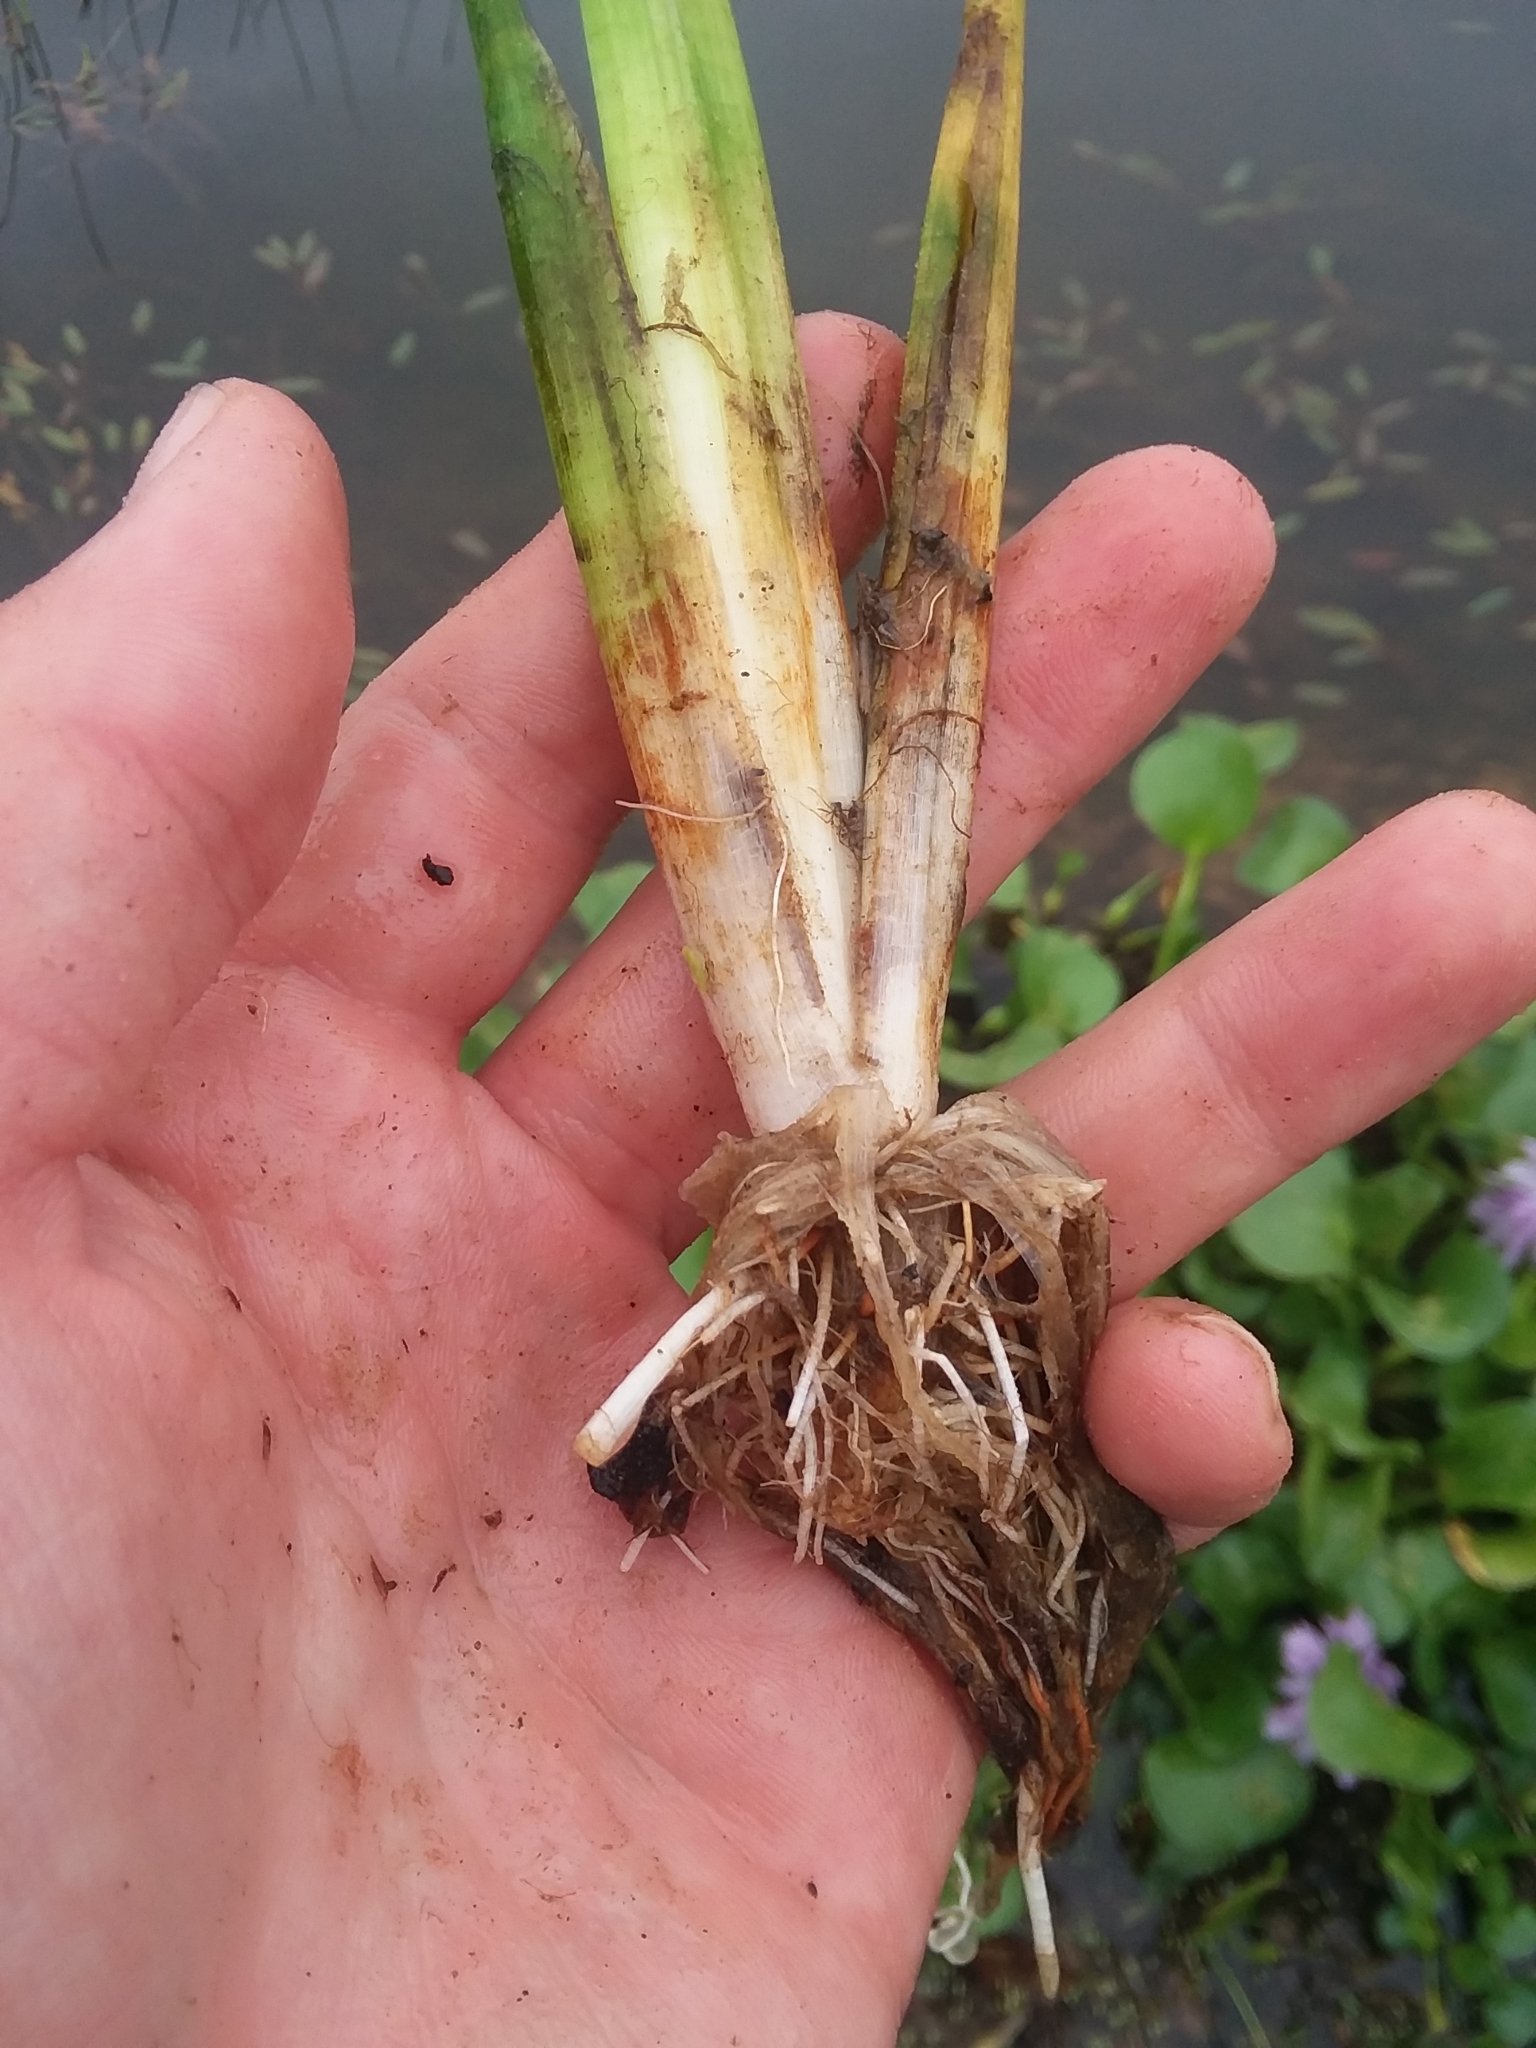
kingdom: Plantae
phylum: Tracheophyta
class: Liliopsida
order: Alismatales
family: Alismataceae
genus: Sagittaria
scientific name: Sagittaria platyphylla
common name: Broad-leaf arrowhead
